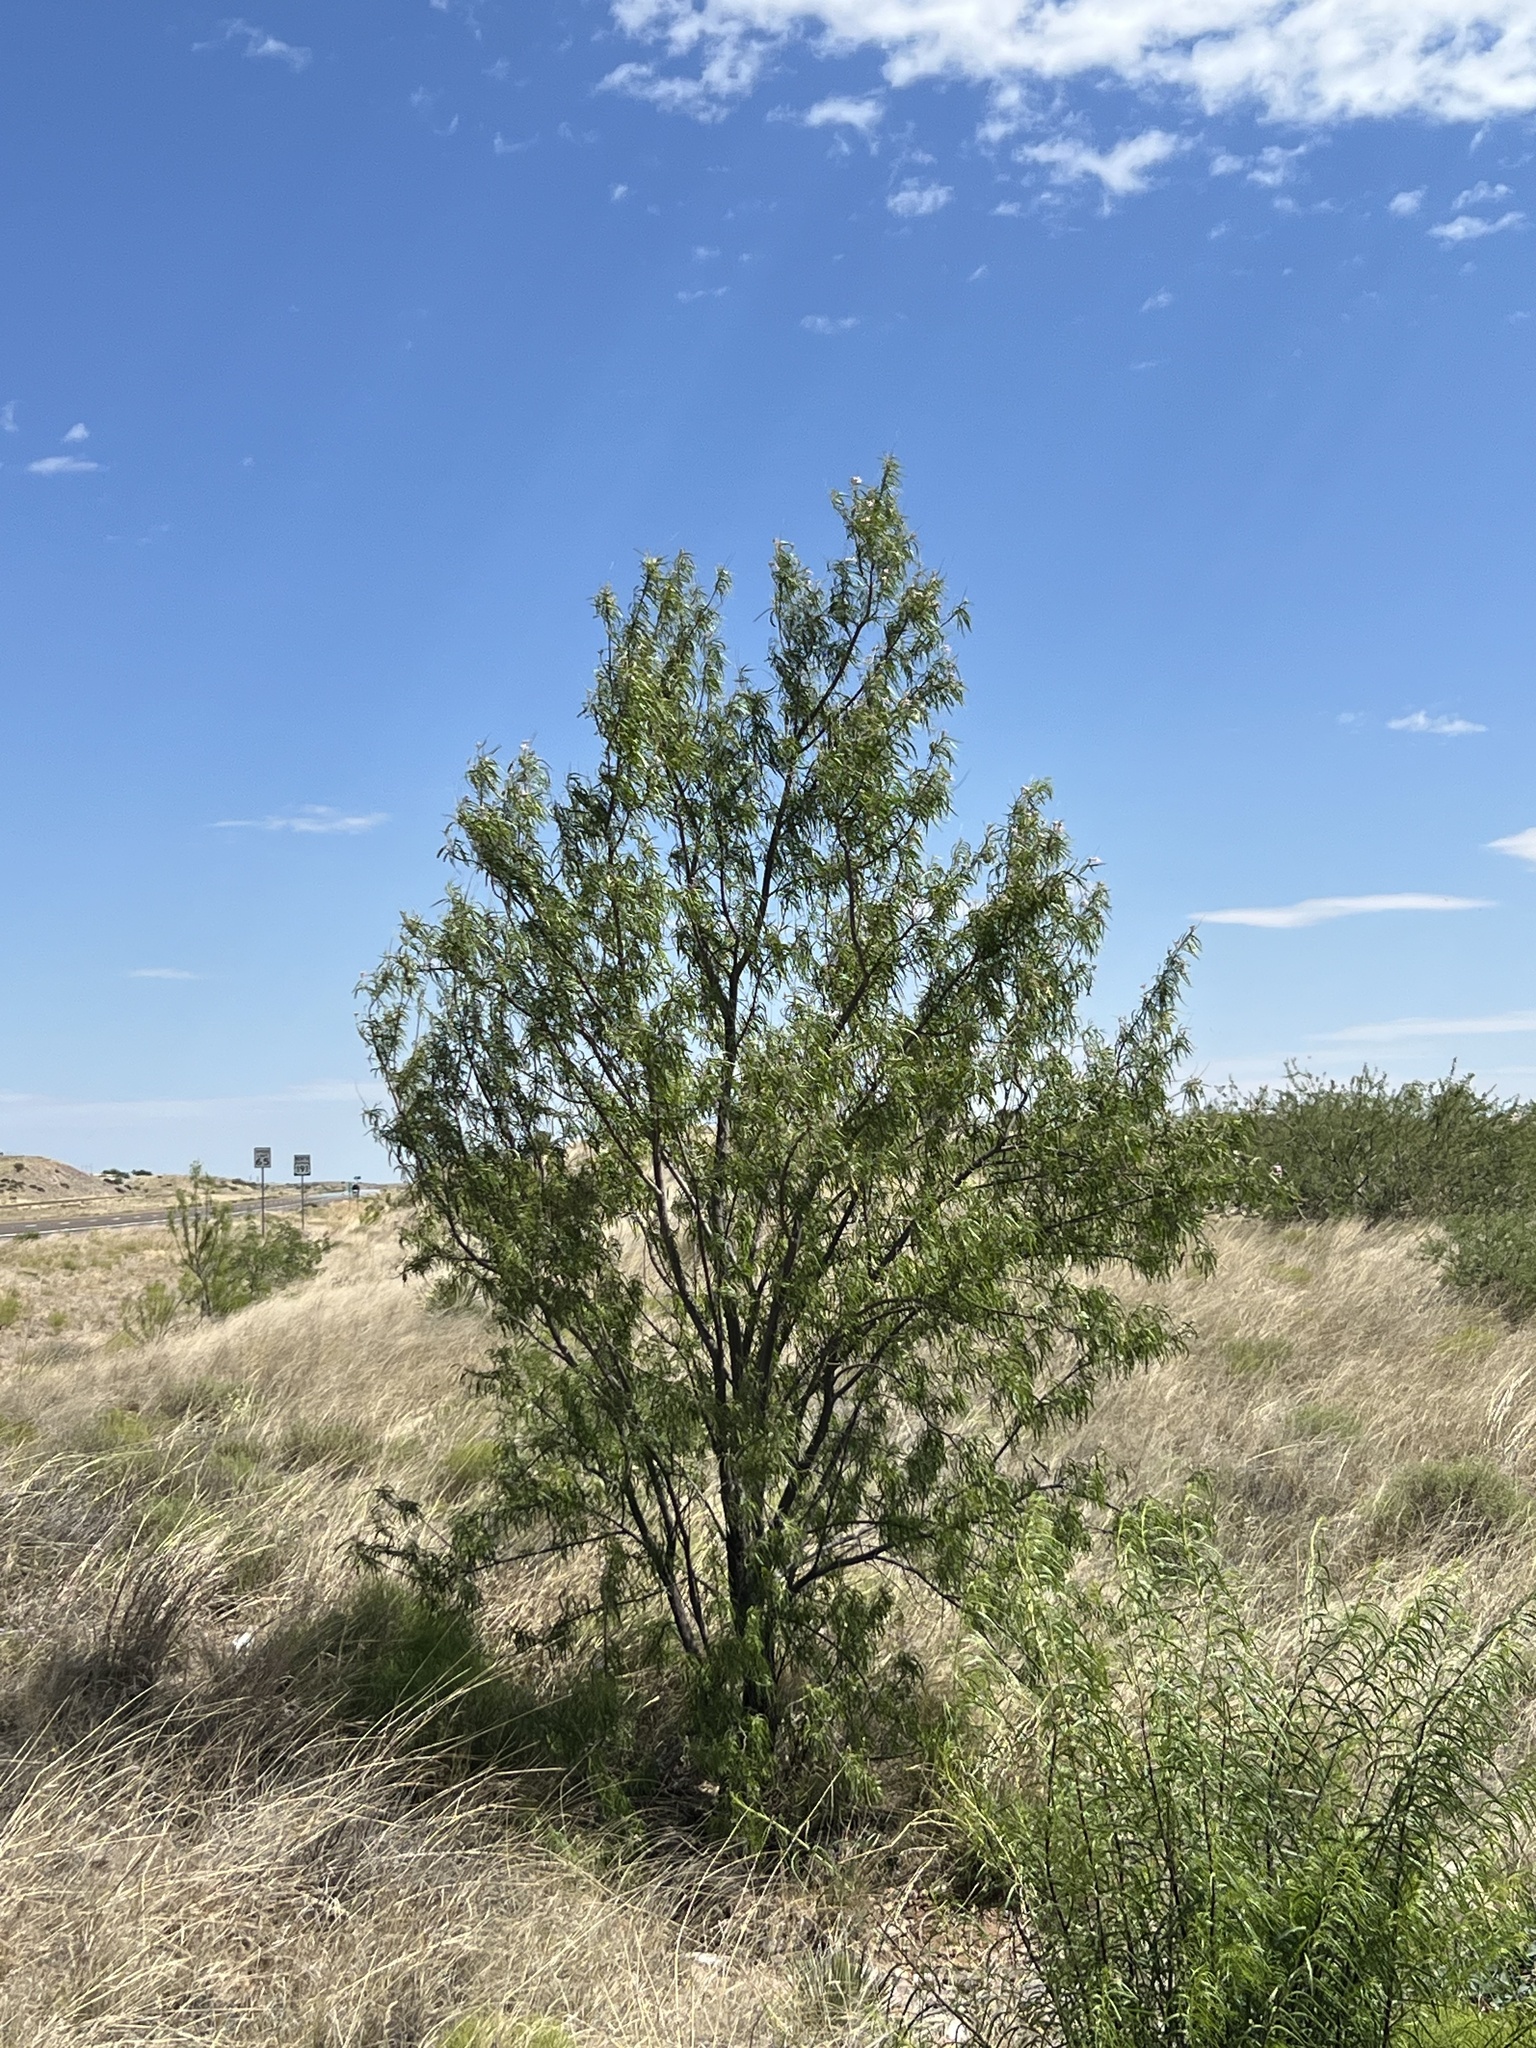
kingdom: Plantae
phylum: Tracheophyta
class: Magnoliopsida
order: Lamiales
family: Bignoniaceae
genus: Chilopsis
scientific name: Chilopsis linearis
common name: Desert-willow
